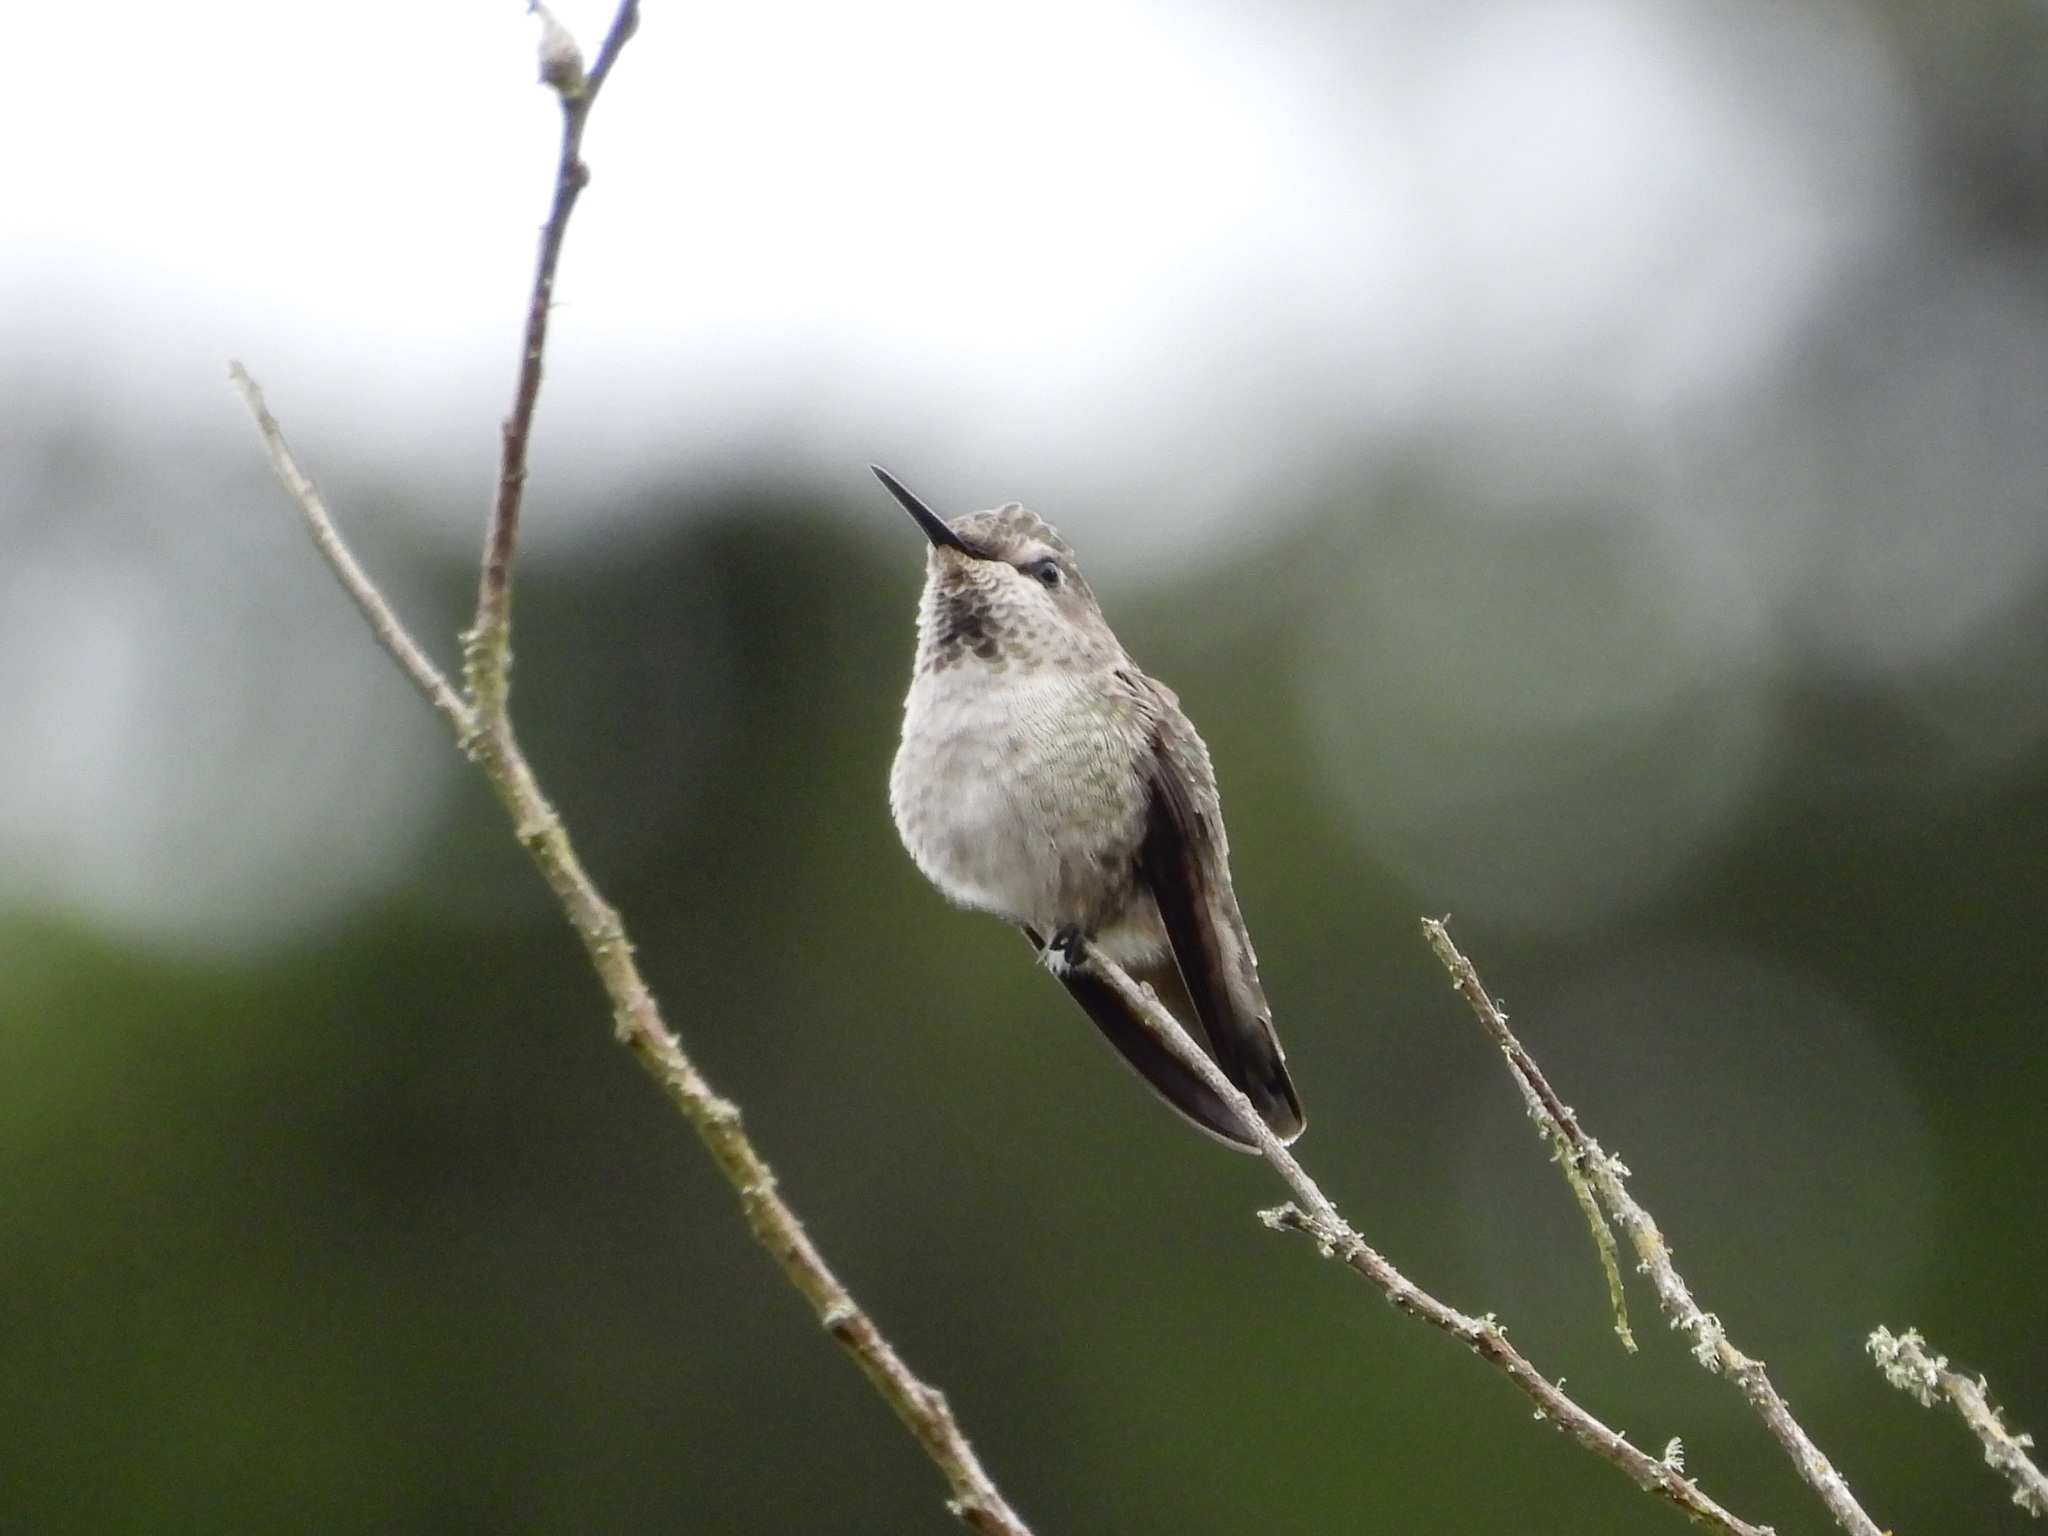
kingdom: Animalia
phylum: Chordata
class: Aves
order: Apodiformes
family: Trochilidae
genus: Calypte
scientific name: Calypte anna
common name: Anna's hummingbird
